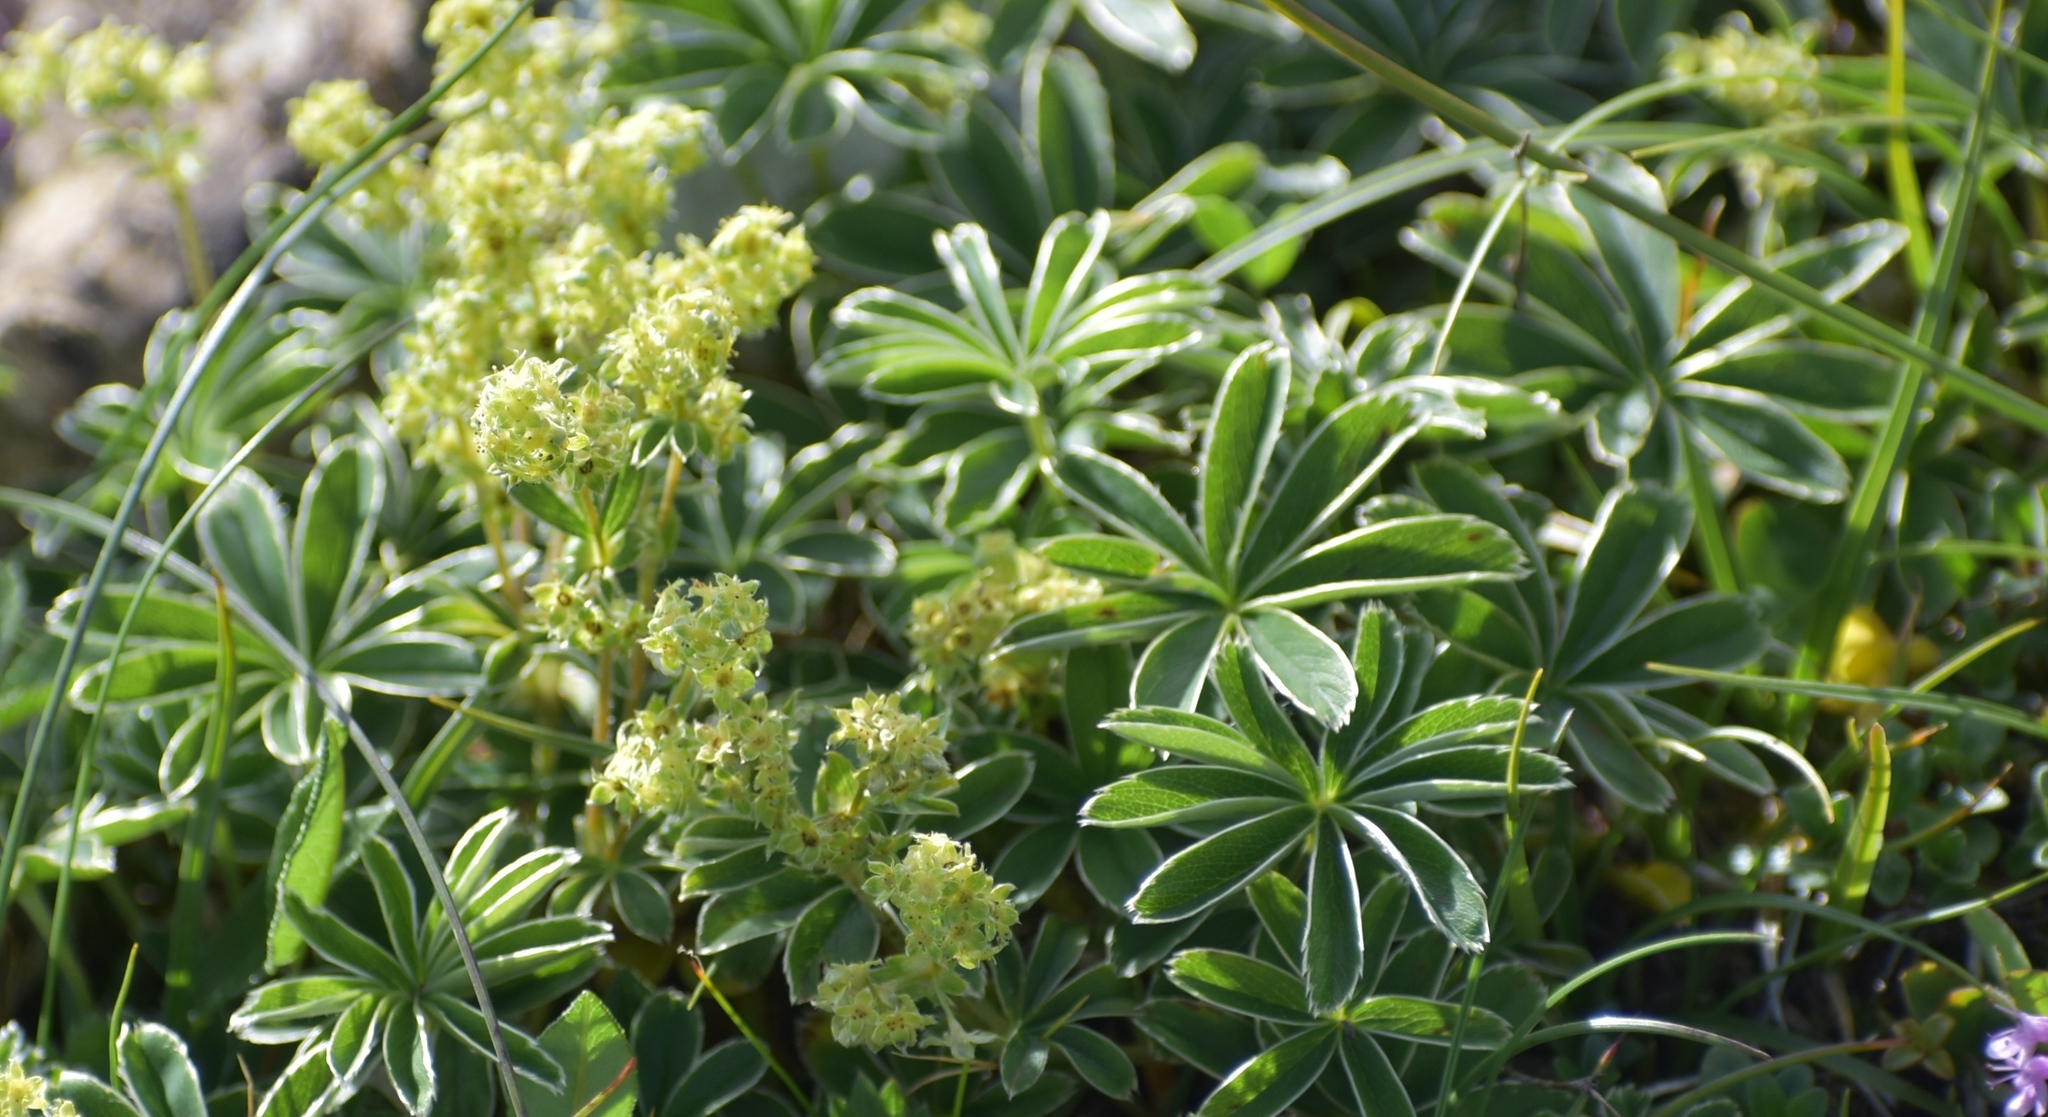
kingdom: Plantae
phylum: Tracheophyta
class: Magnoliopsida
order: Rosales
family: Rosaceae
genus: Alchemilla
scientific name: Alchemilla alpina
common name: Alpine lady's-mantle
